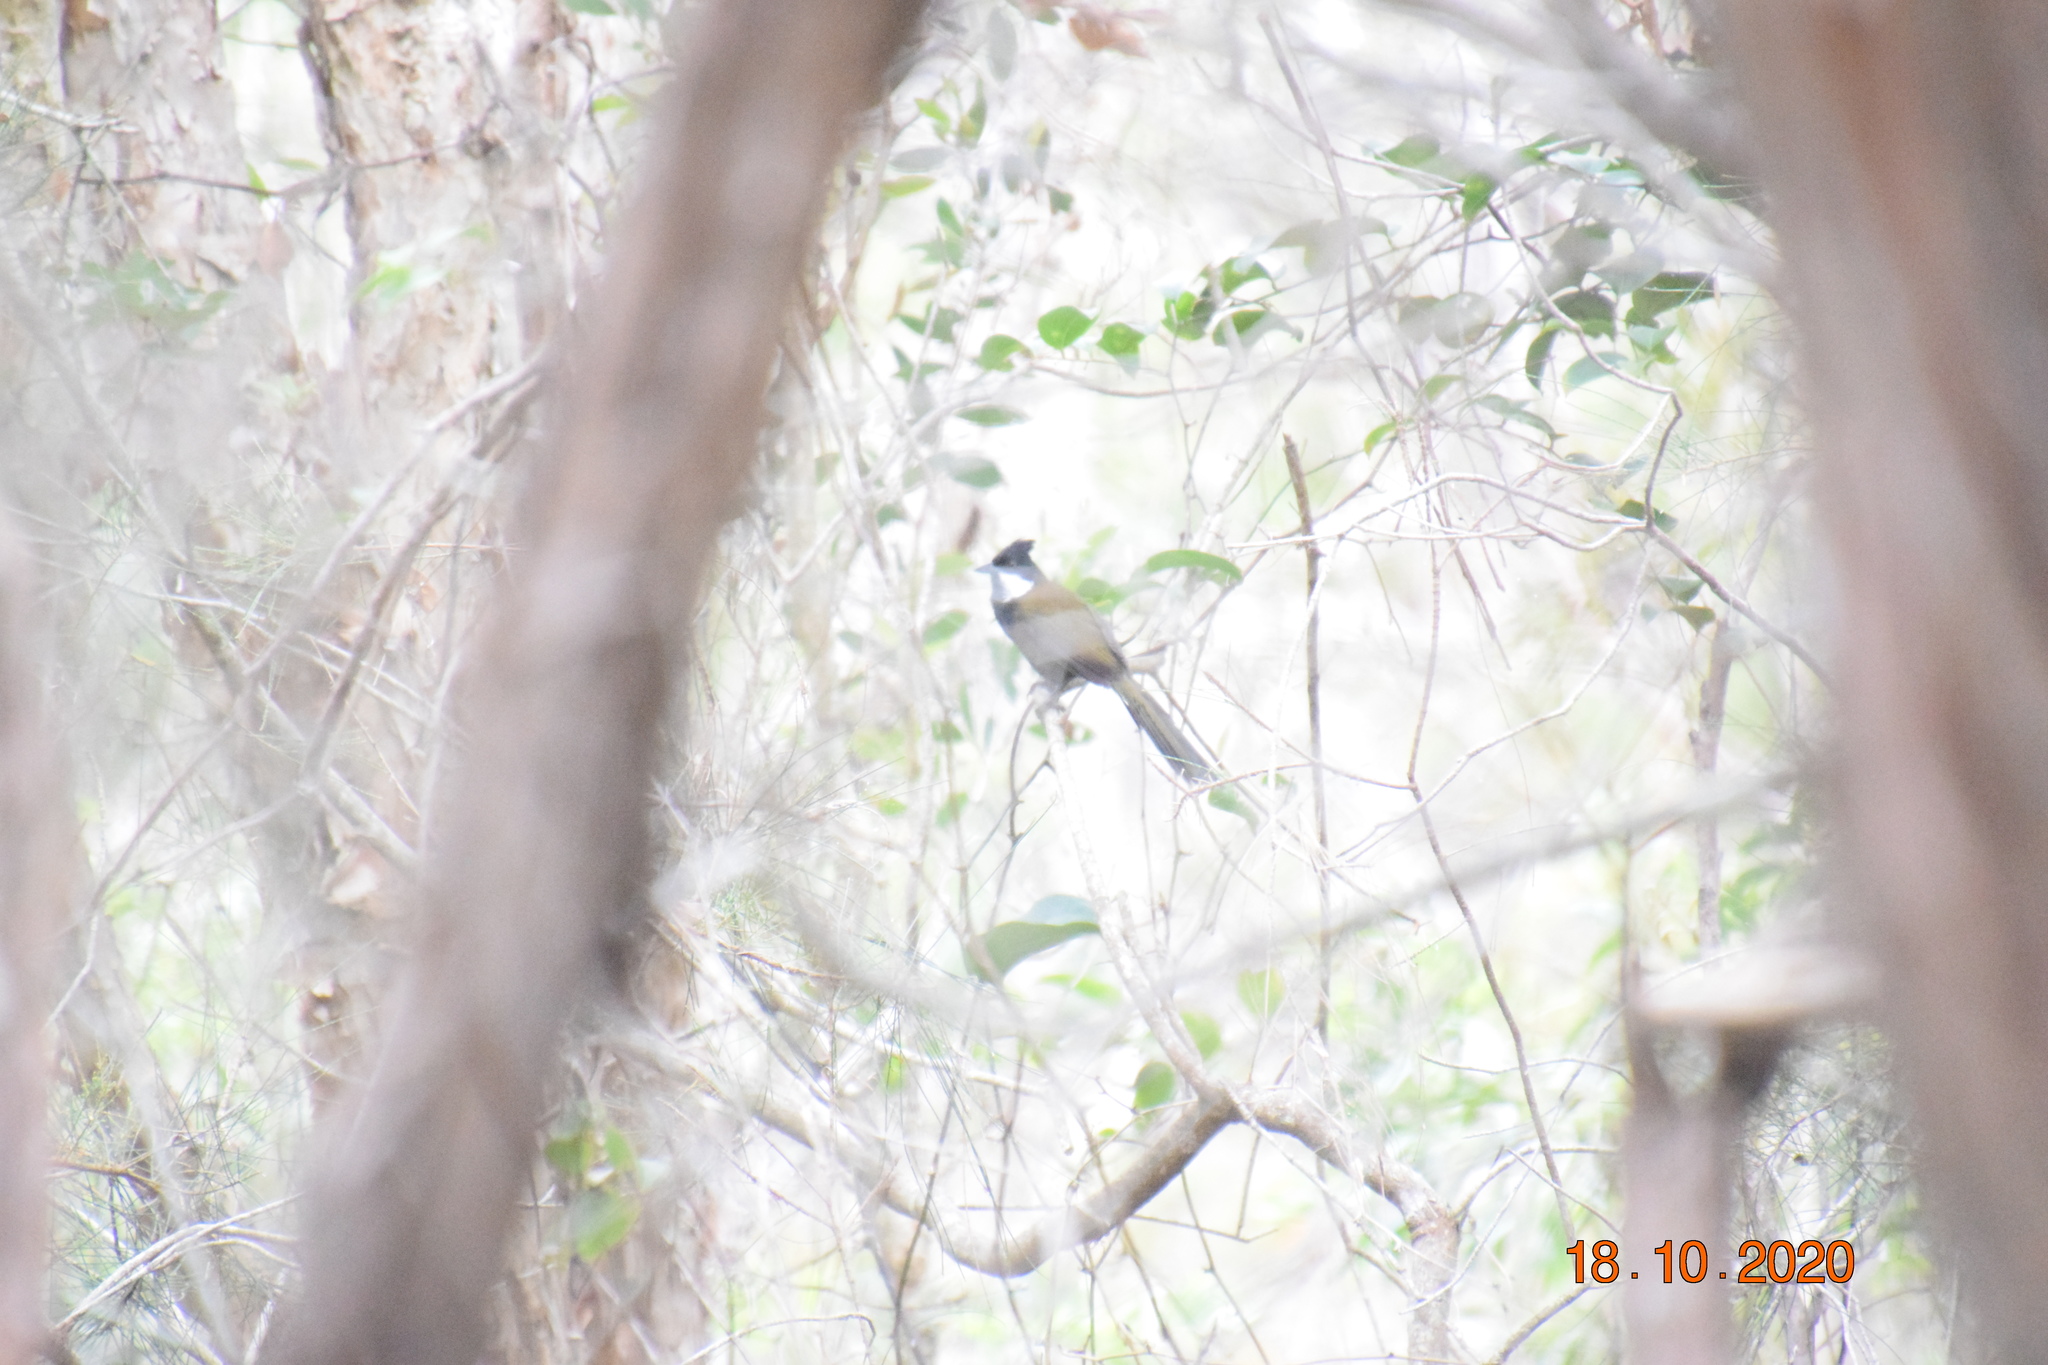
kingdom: Animalia
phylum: Chordata
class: Aves
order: Passeriformes
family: Psophodidae
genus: Psophodes
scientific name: Psophodes olivaceus
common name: Eastern whipbird
